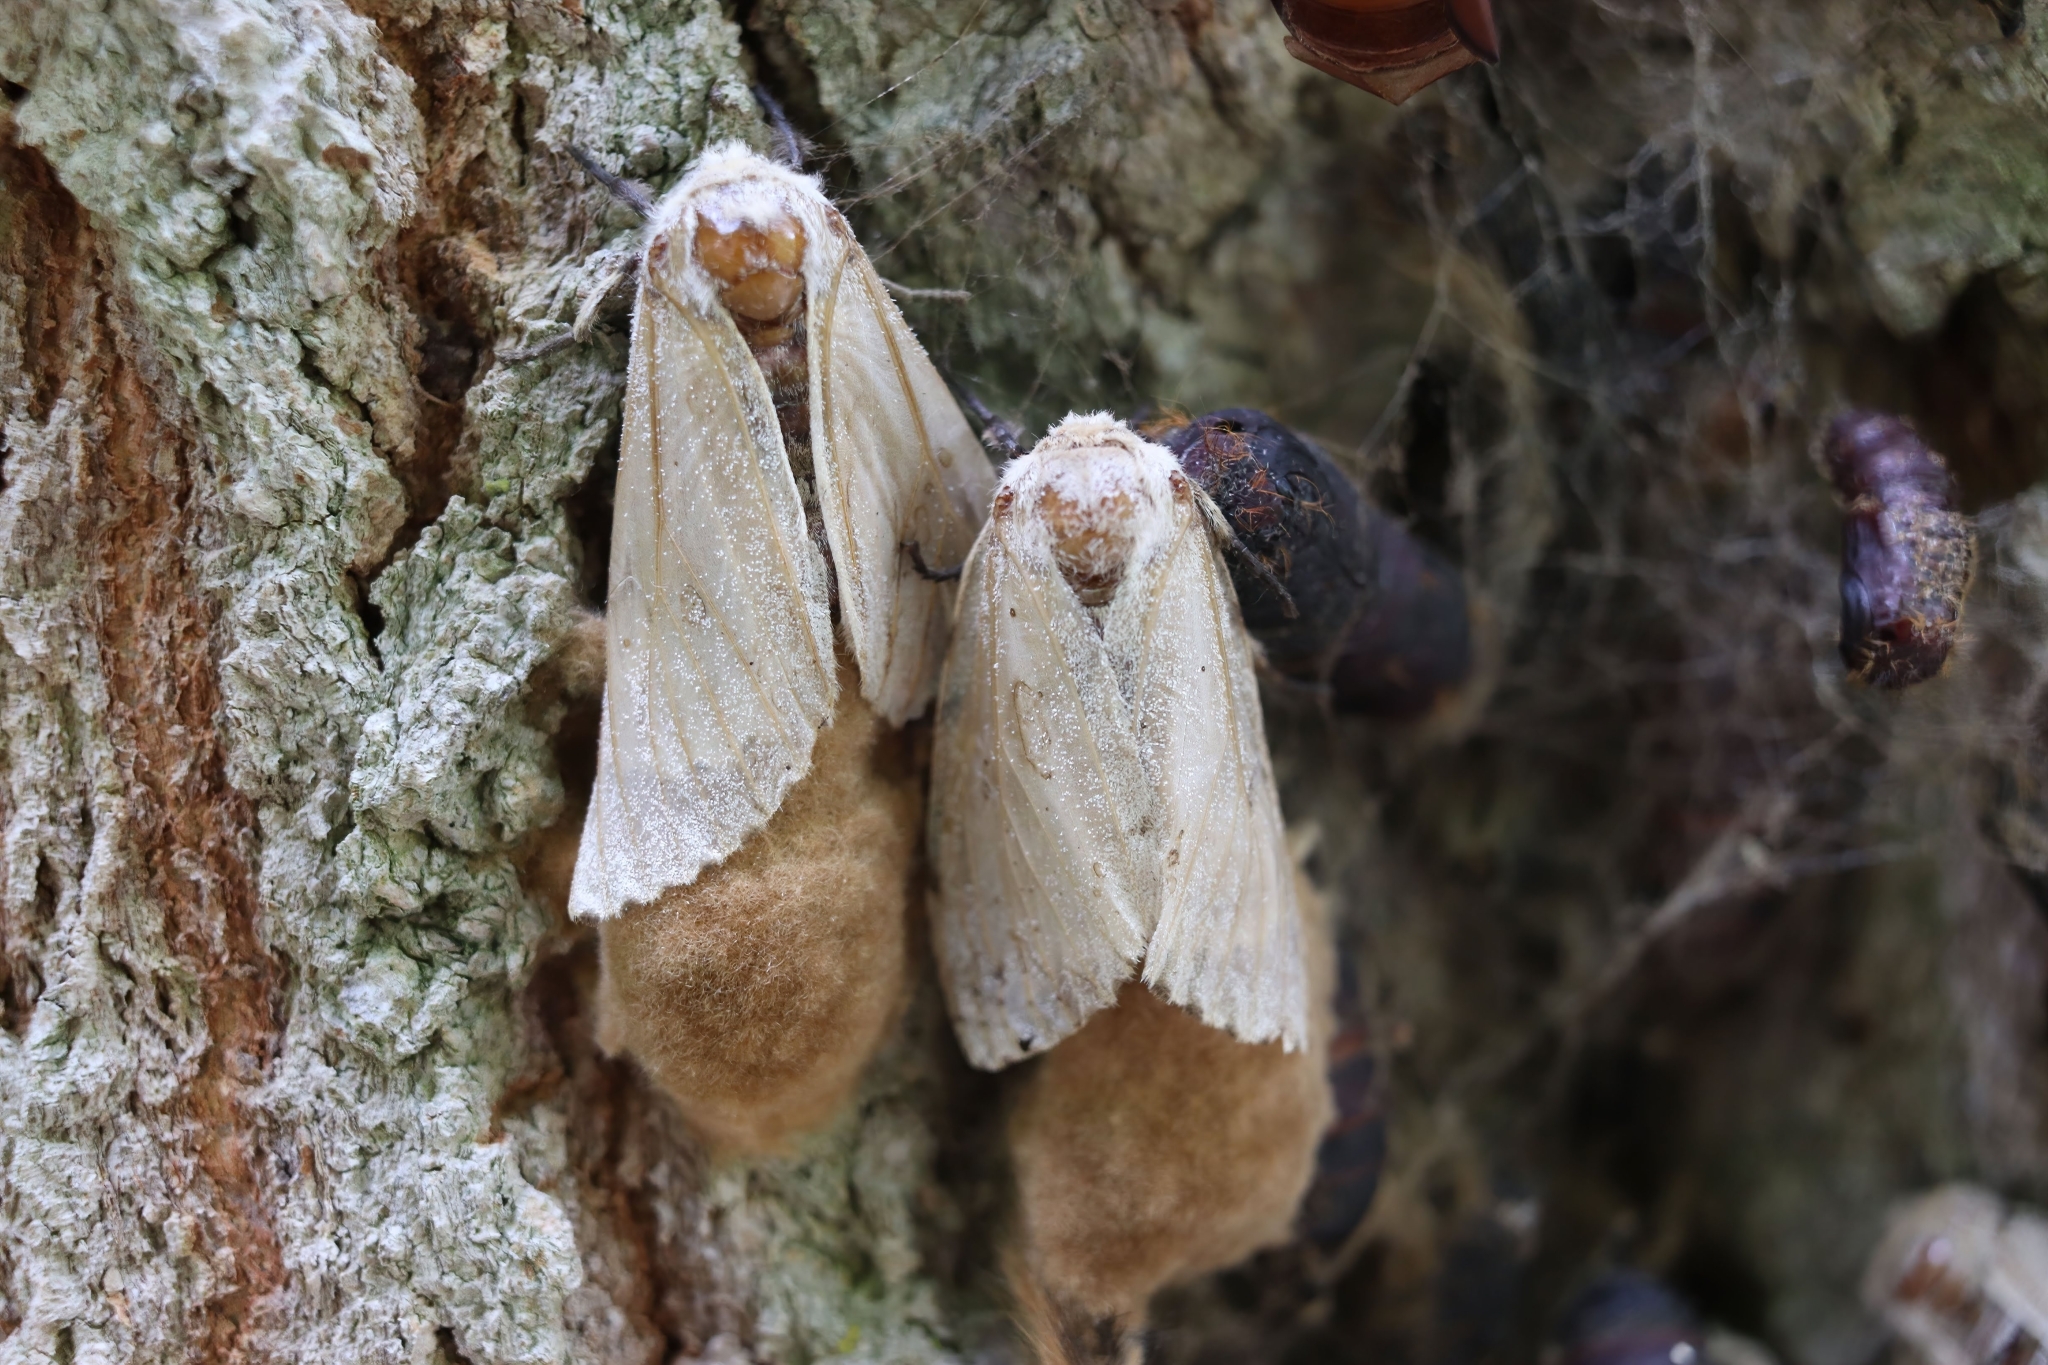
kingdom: Animalia
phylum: Arthropoda
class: Insecta
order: Lepidoptera
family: Erebidae
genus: Lymantria
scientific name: Lymantria dispar
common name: Gypsy moth
